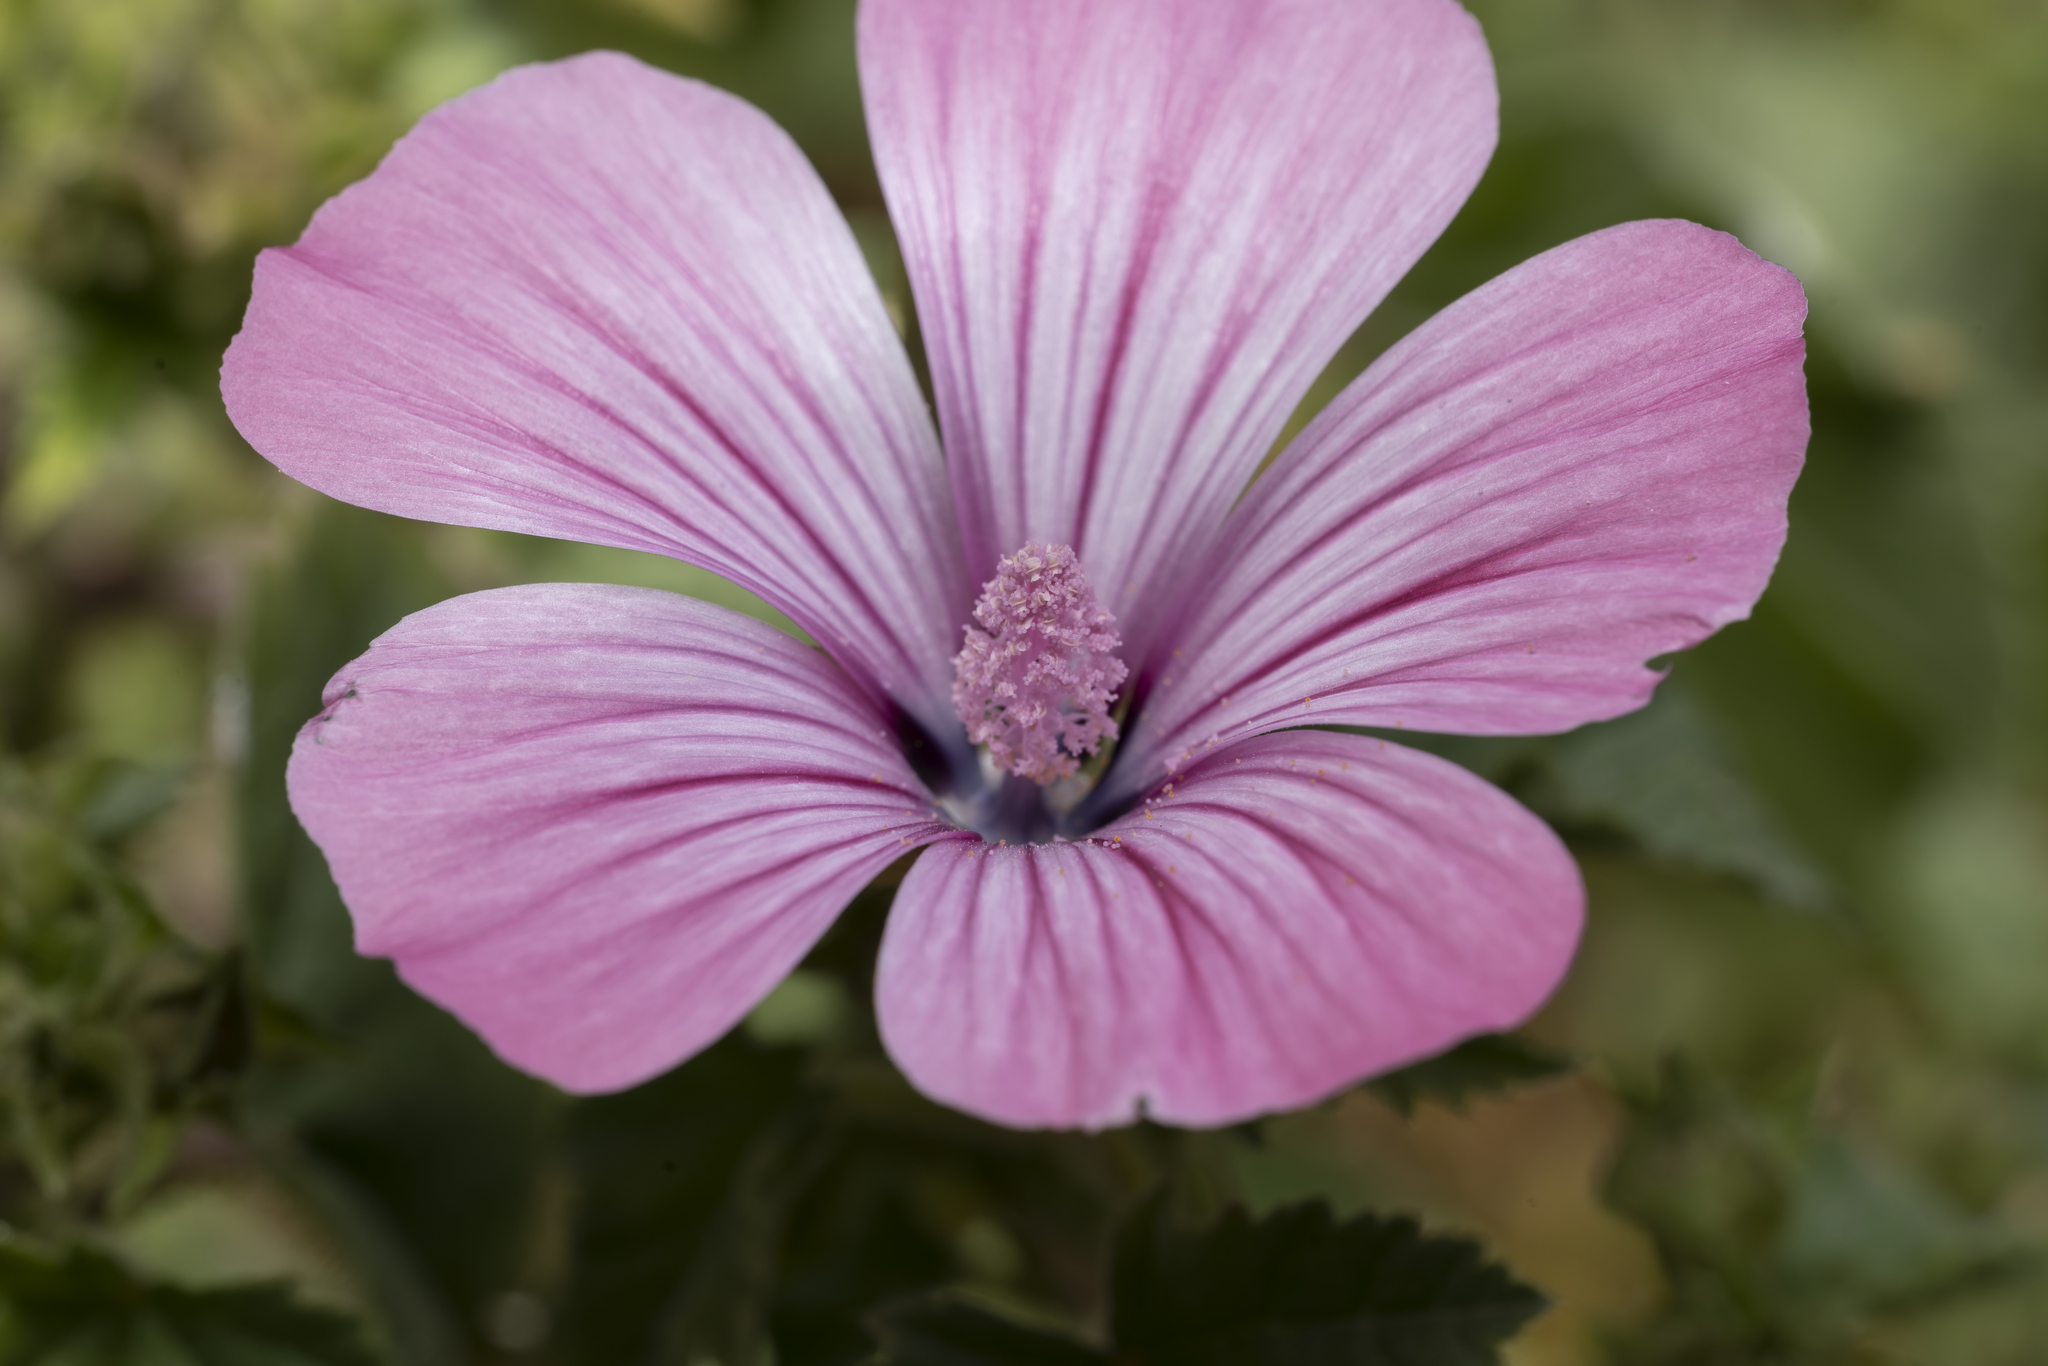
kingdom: Plantae
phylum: Tracheophyta
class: Magnoliopsida
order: Malvales
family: Malvaceae
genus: Malva
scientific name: Malva trimestris
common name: Royal mallow
